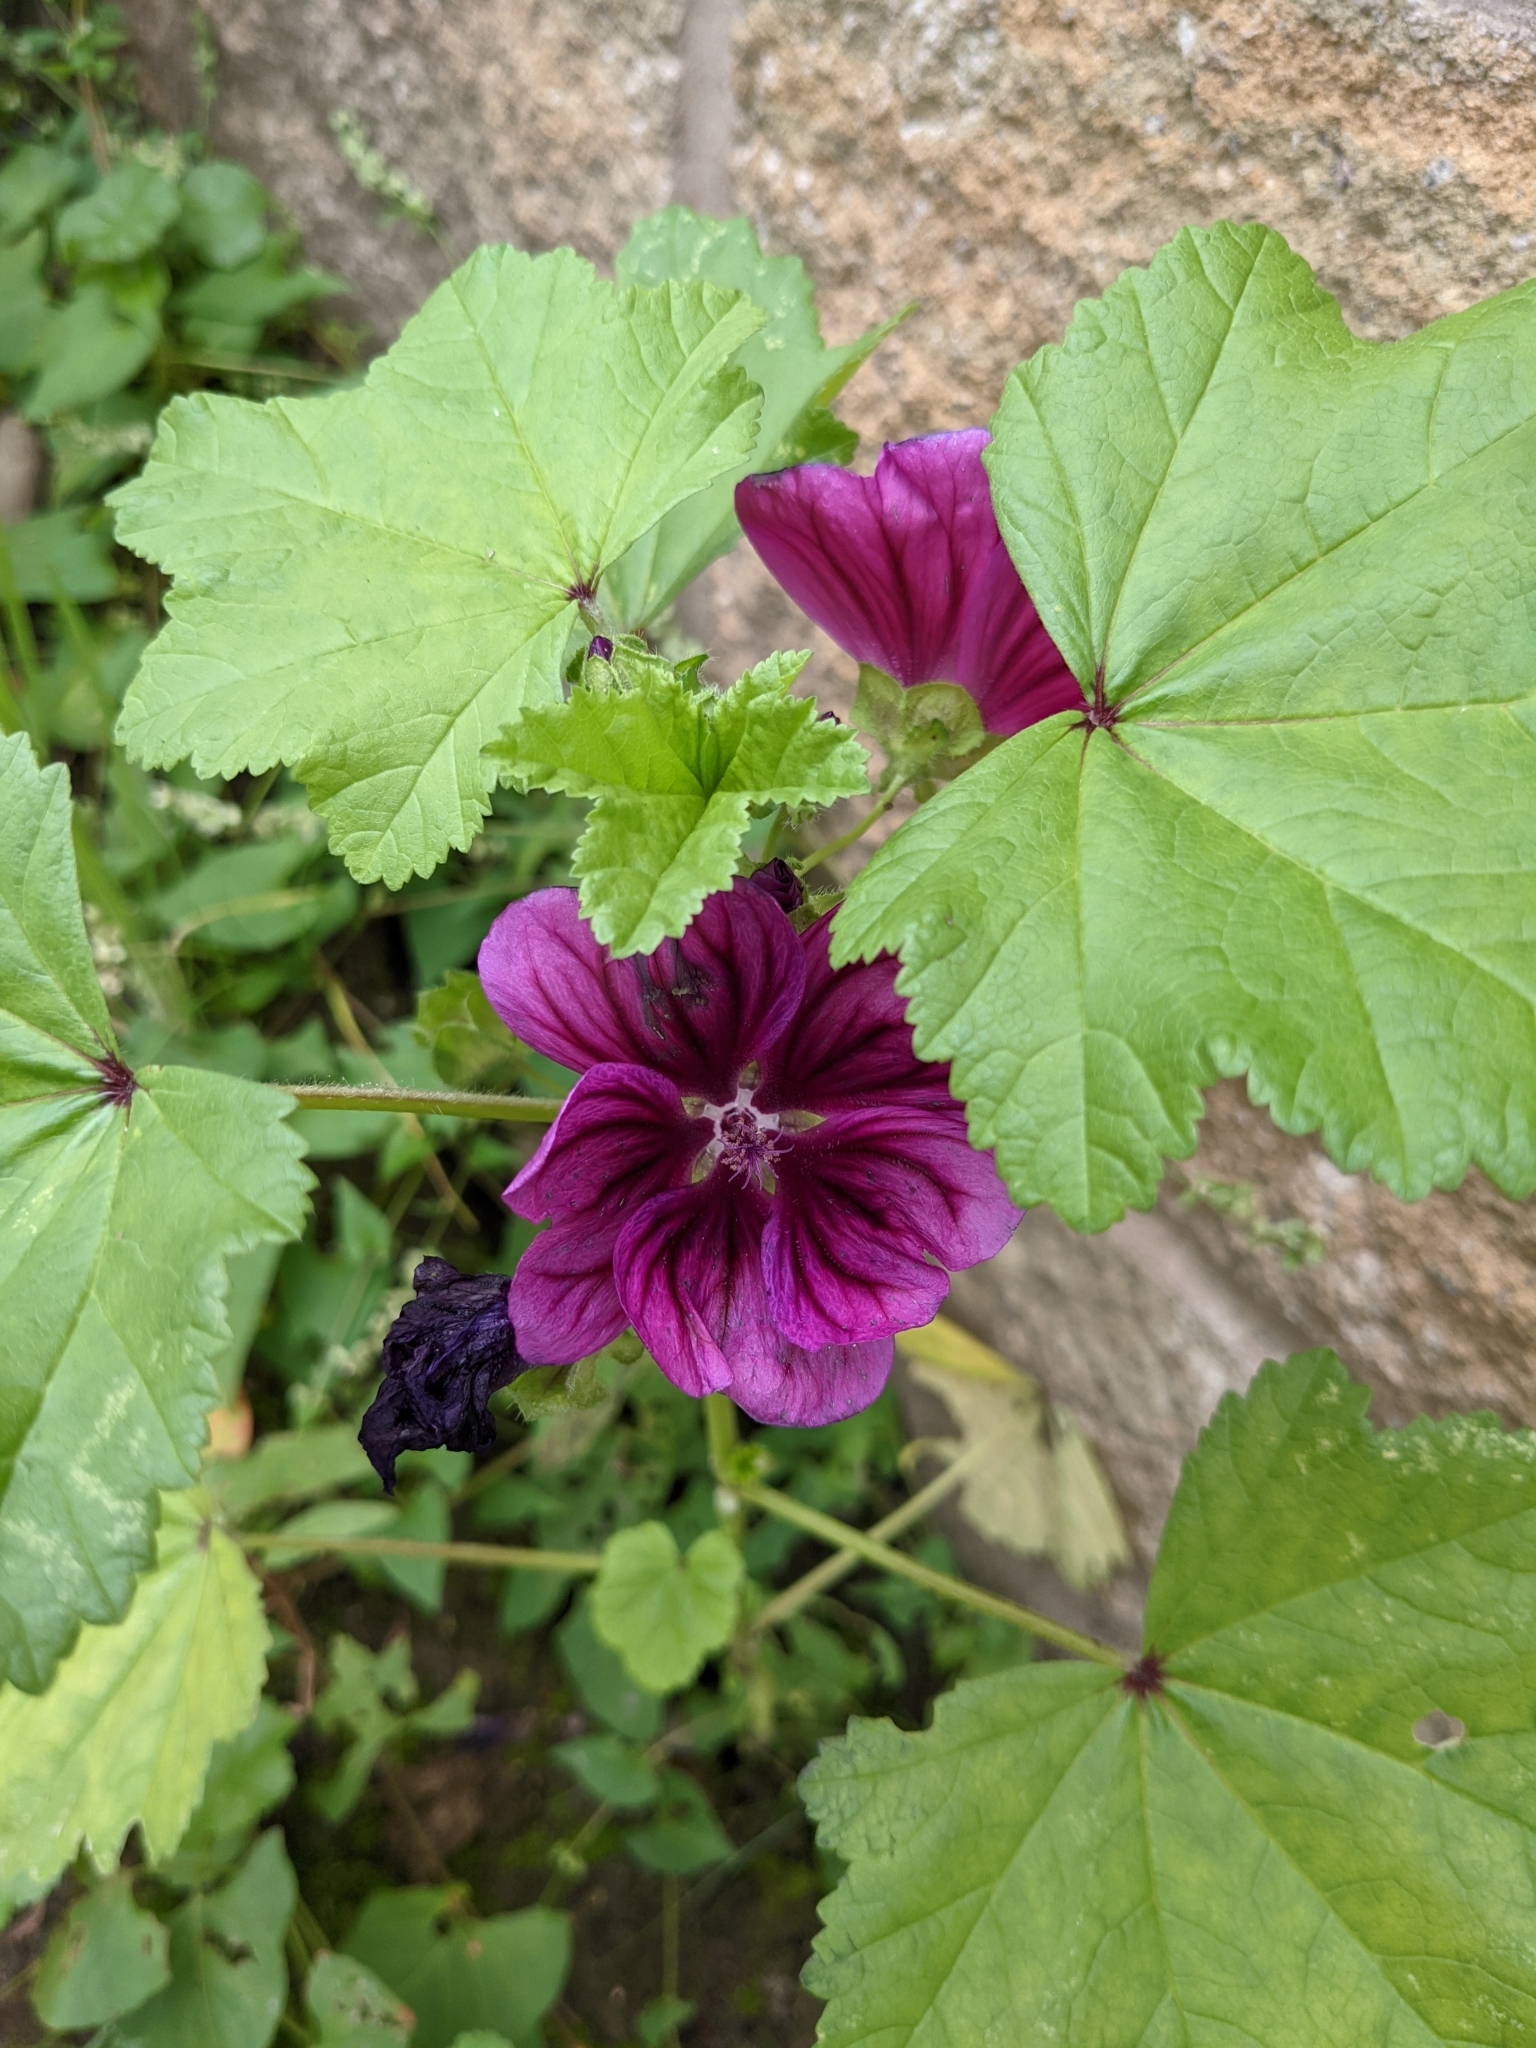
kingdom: Plantae
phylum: Tracheophyta
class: Magnoliopsida
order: Malvales
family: Malvaceae
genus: Malva
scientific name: Malva sylvestris
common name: Common mallow
